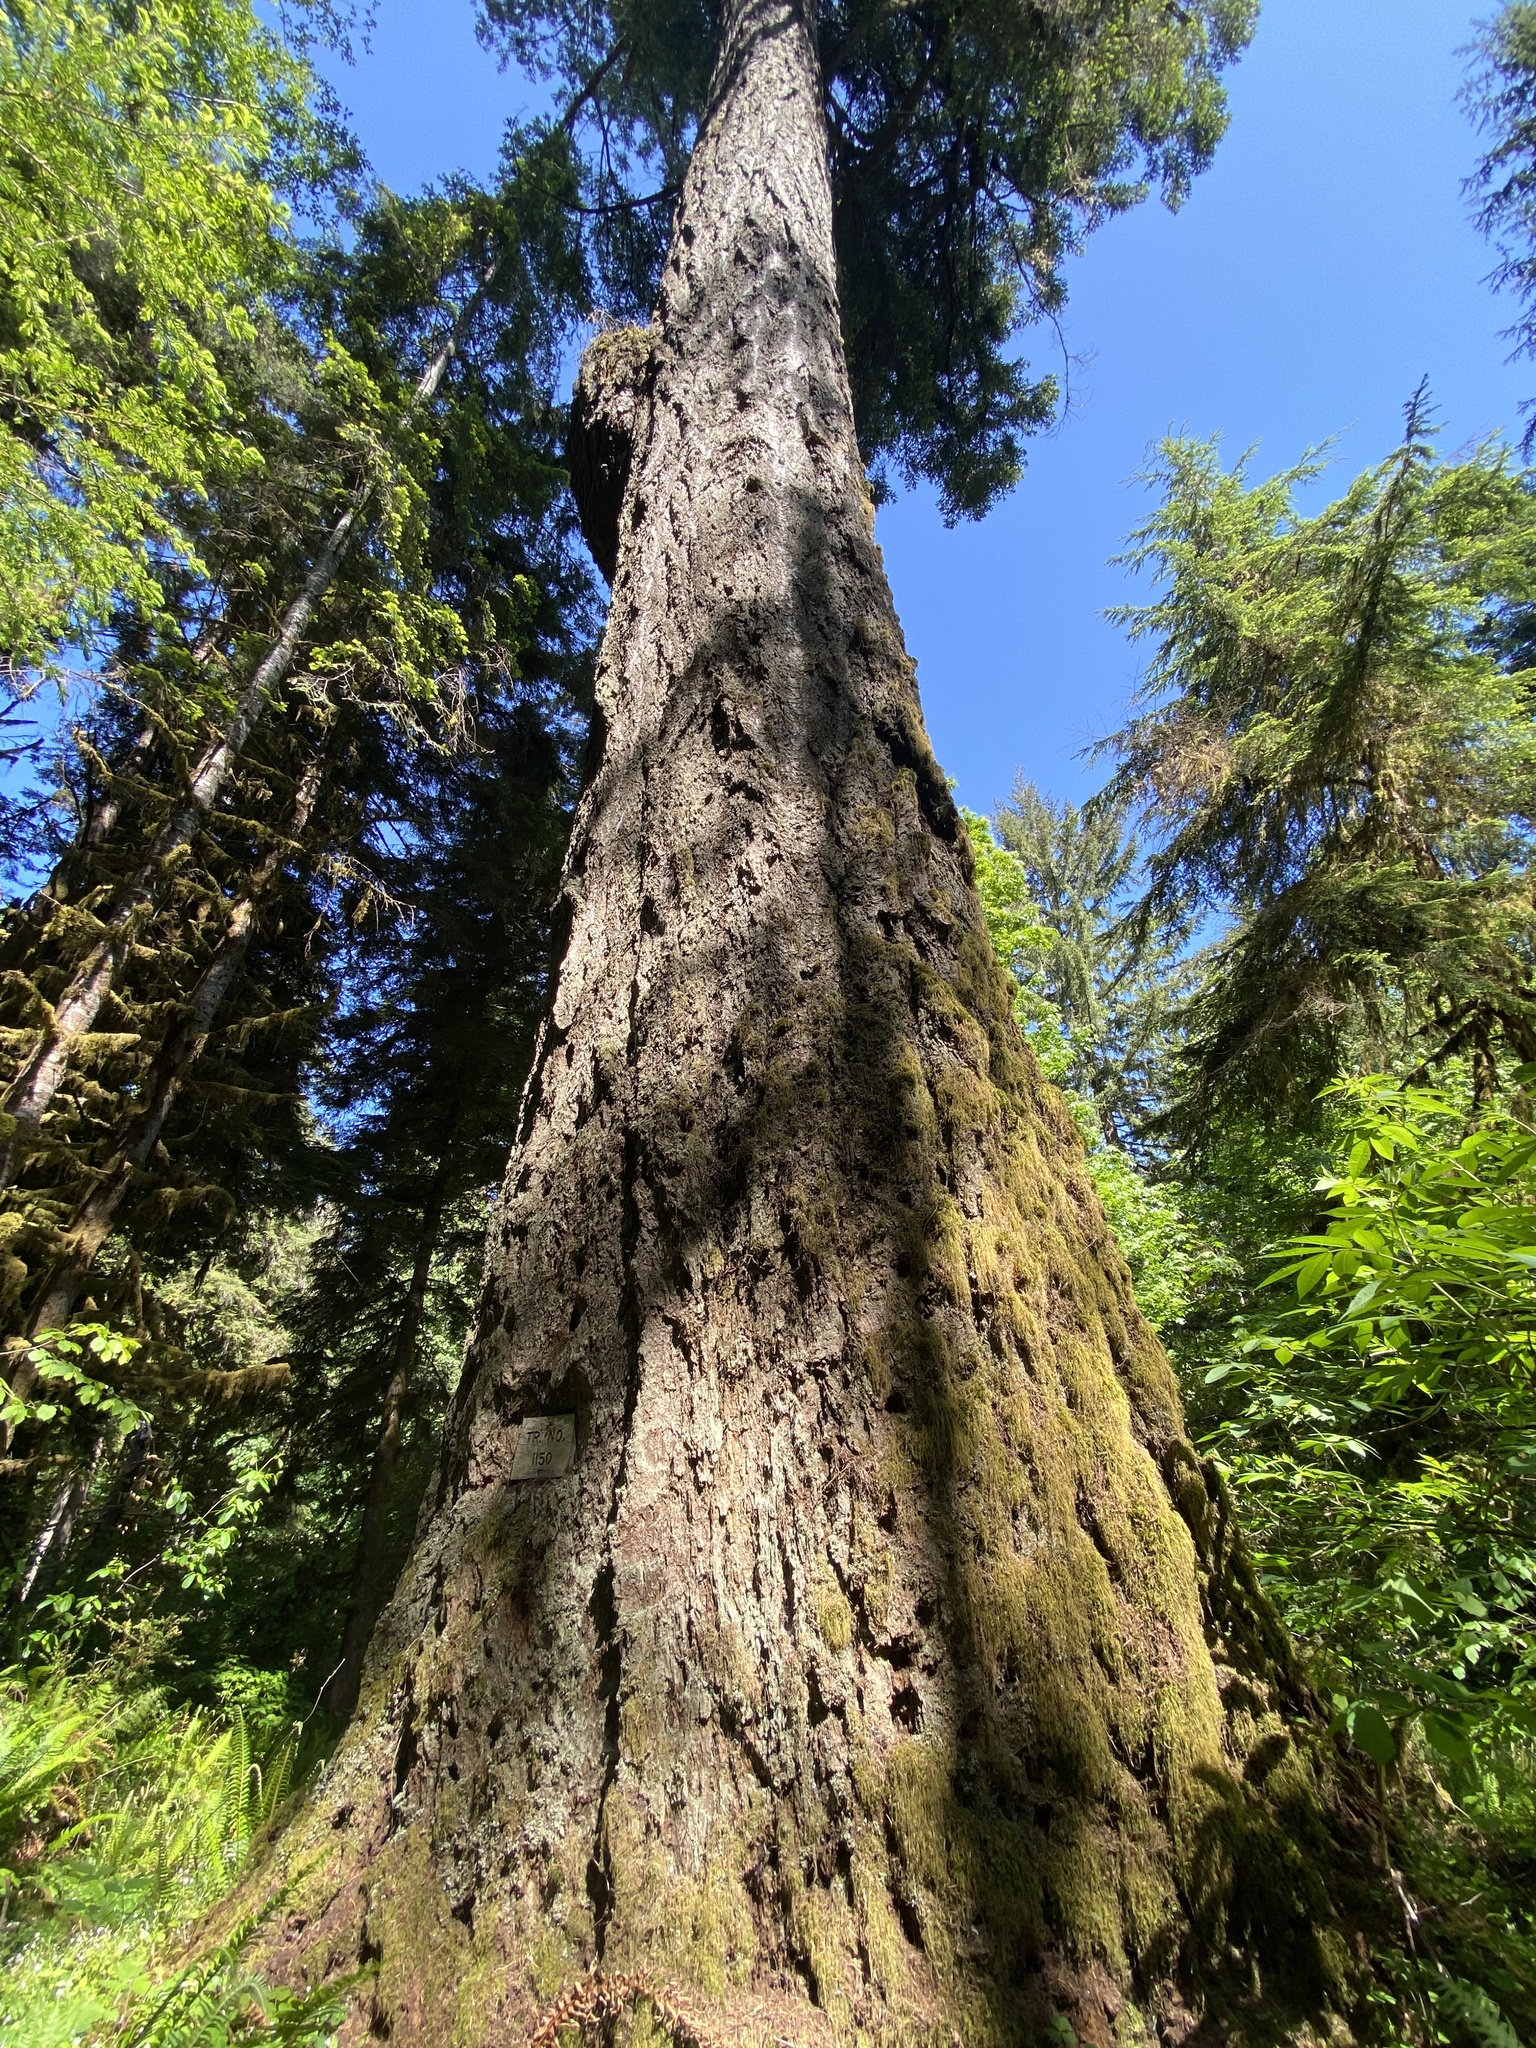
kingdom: Plantae
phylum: Tracheophyta
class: Pinopsida
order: Pinales
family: Pinaceae
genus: Pseudotsuga
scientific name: Pseudotsuga menziesii
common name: Douglas fir
